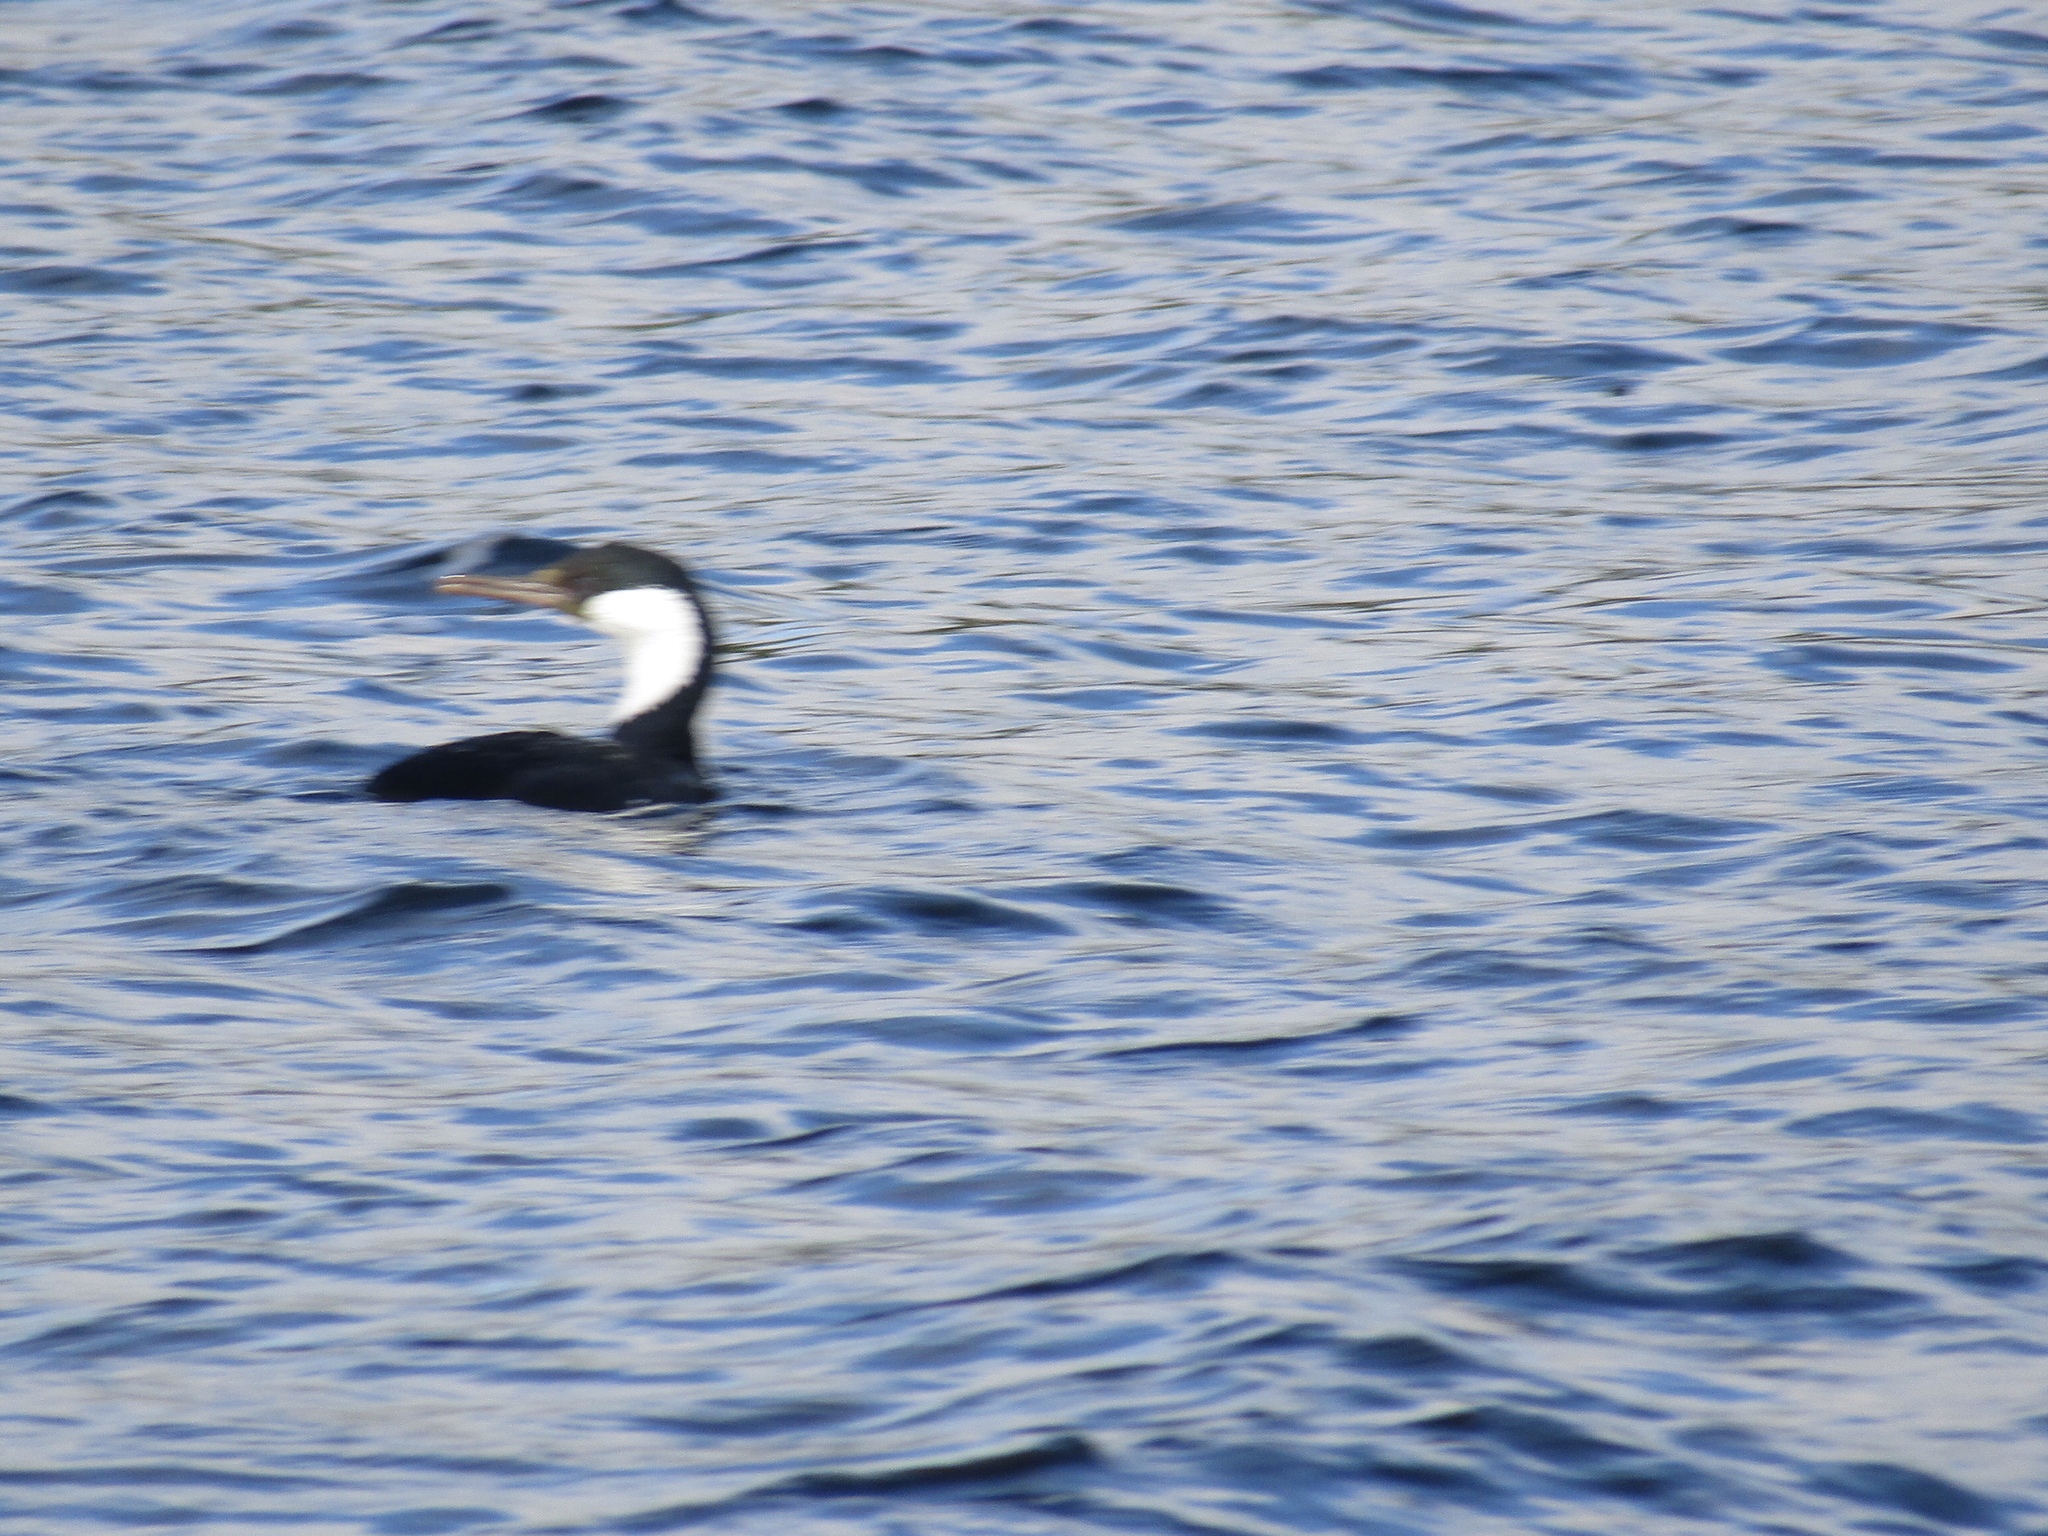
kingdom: Animalia
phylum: Chordata
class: Aves
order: Suliformes
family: Phalacrocoracidae
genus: Leucocarbo
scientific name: Leucocarbo atriceps
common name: Imperial shag
